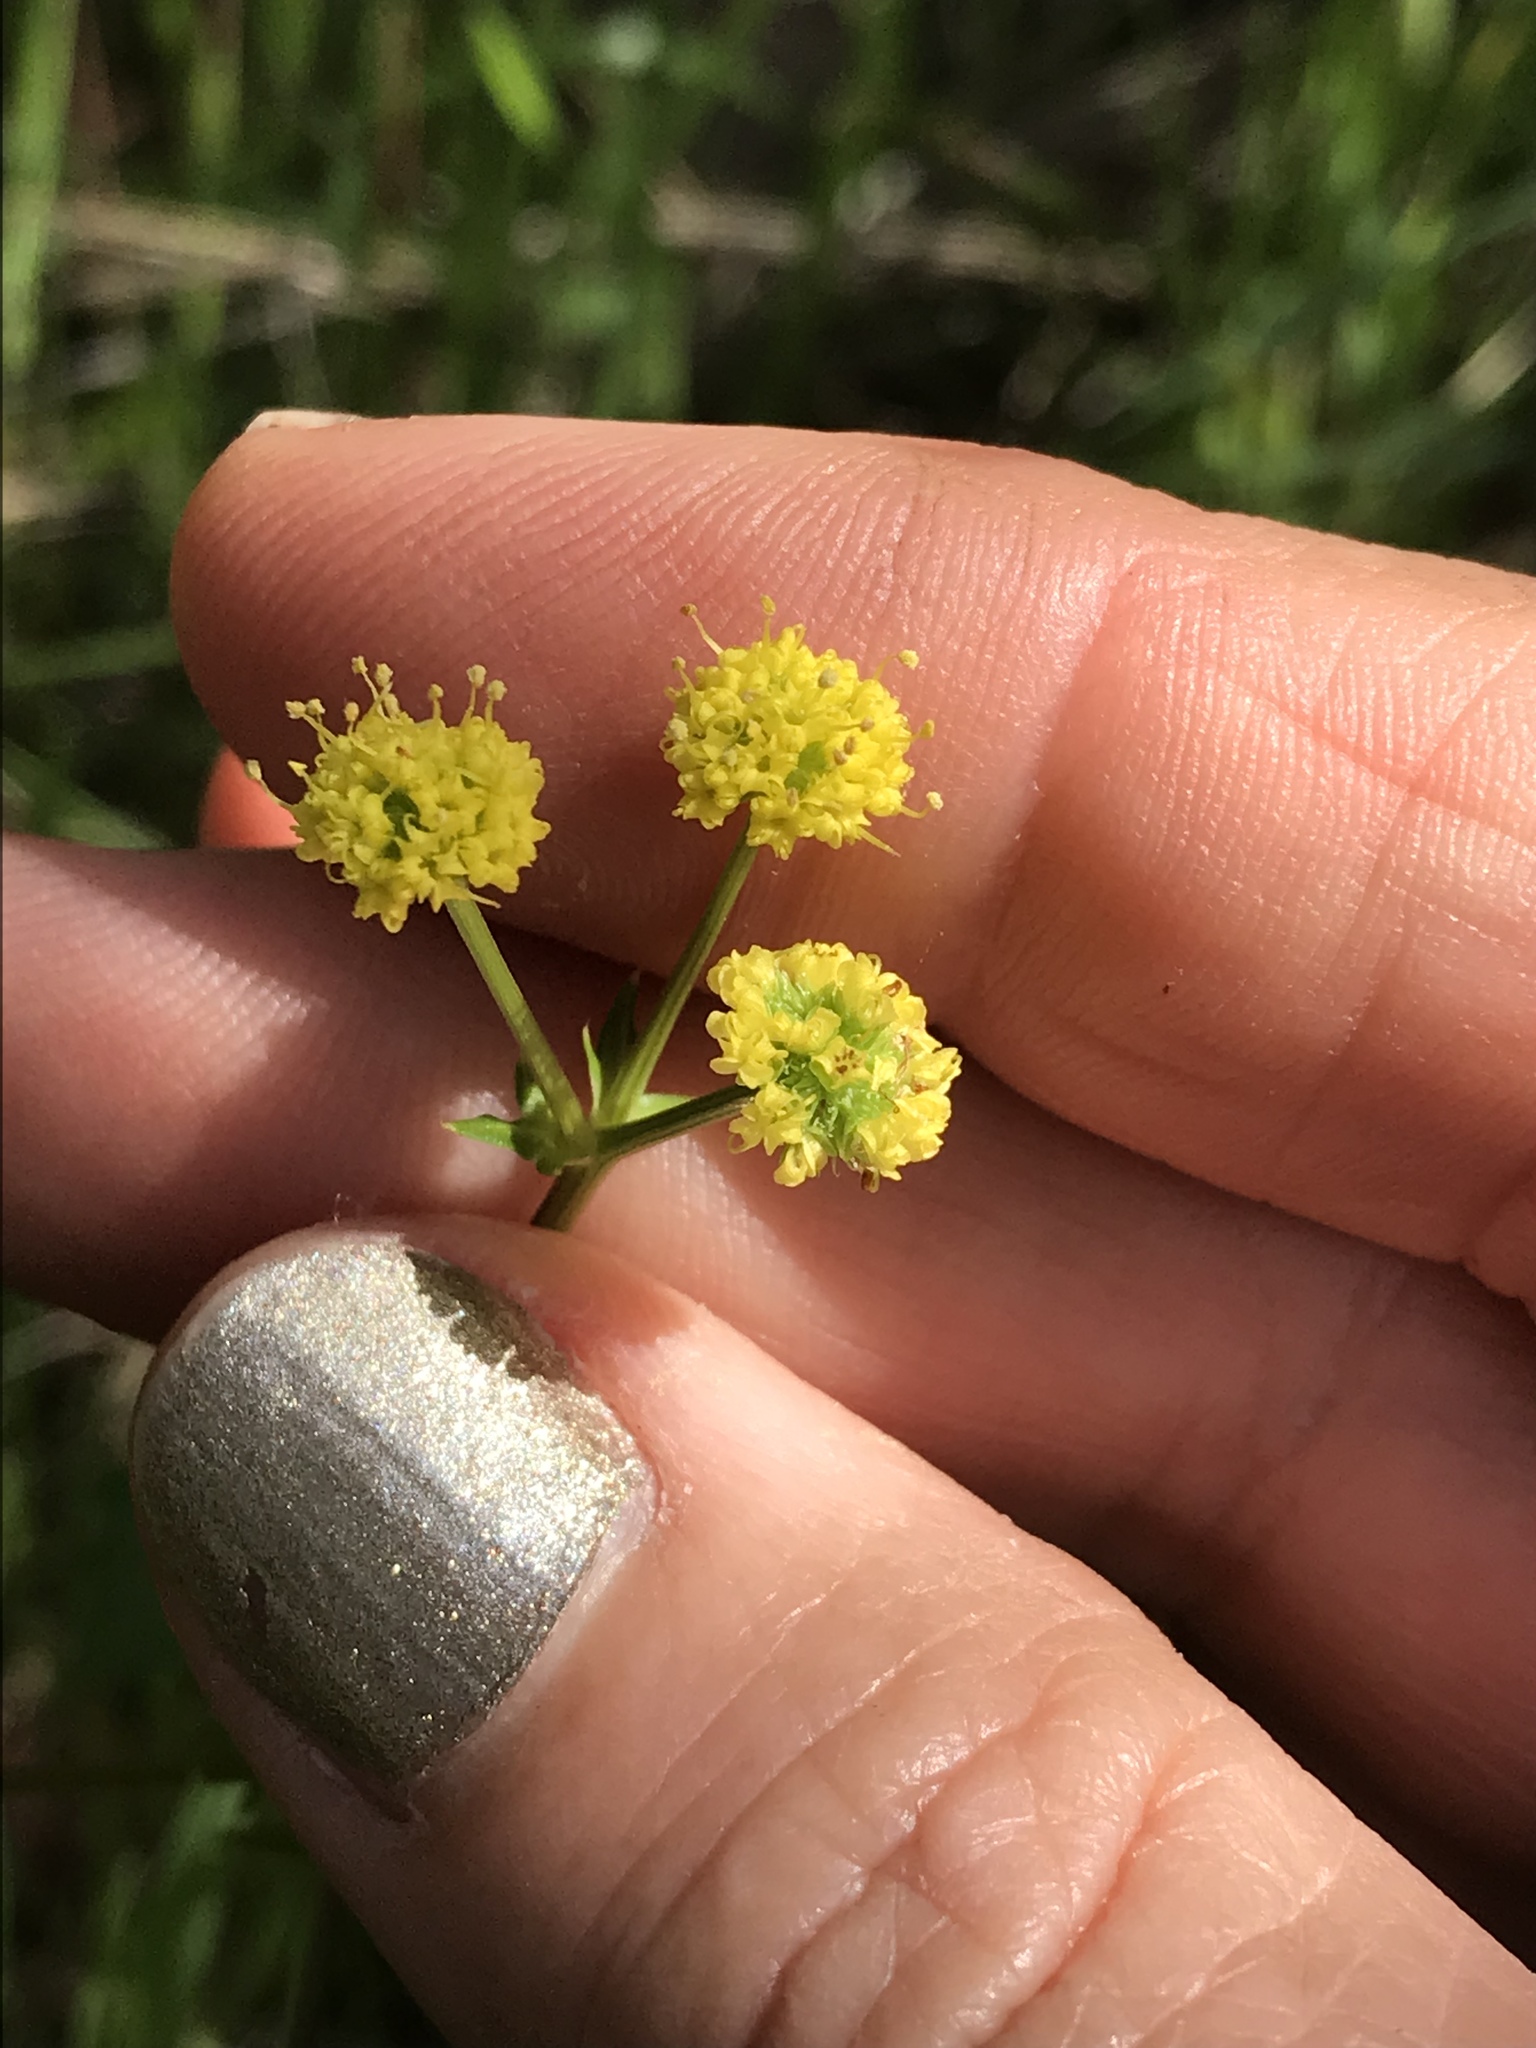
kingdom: Plantae
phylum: Tracheophyta
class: Magnoliopsida
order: Apiales
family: Apiaceae
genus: Sanicula
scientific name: Sanicula crassicaulis
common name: Western snakeroot
